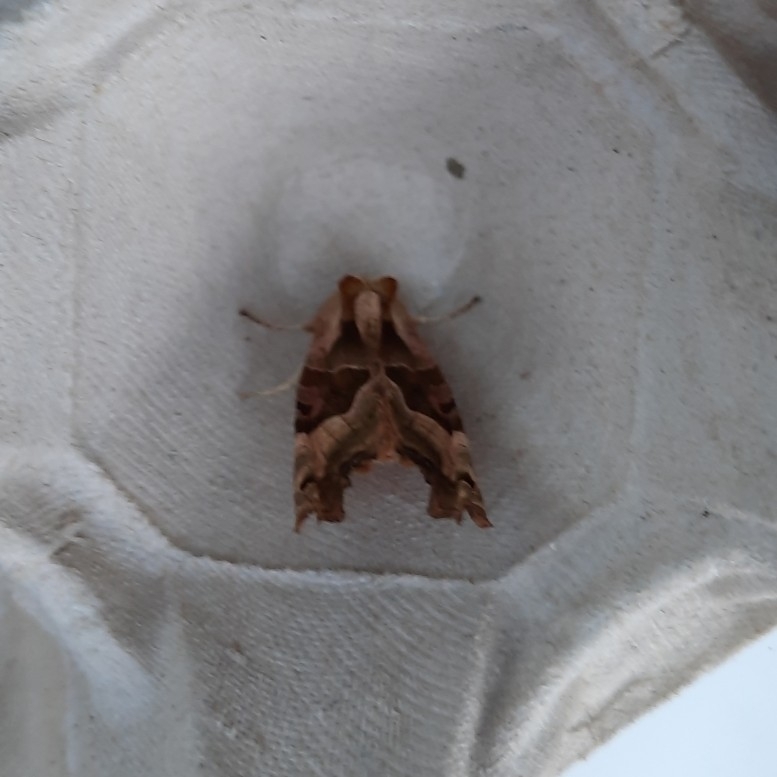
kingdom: Animalia
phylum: Arthropoda
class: Insecta
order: Lepidoptera
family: Noctuidae
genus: Phlogophora
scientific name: Phlogophora meticulosa
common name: Angle shades
